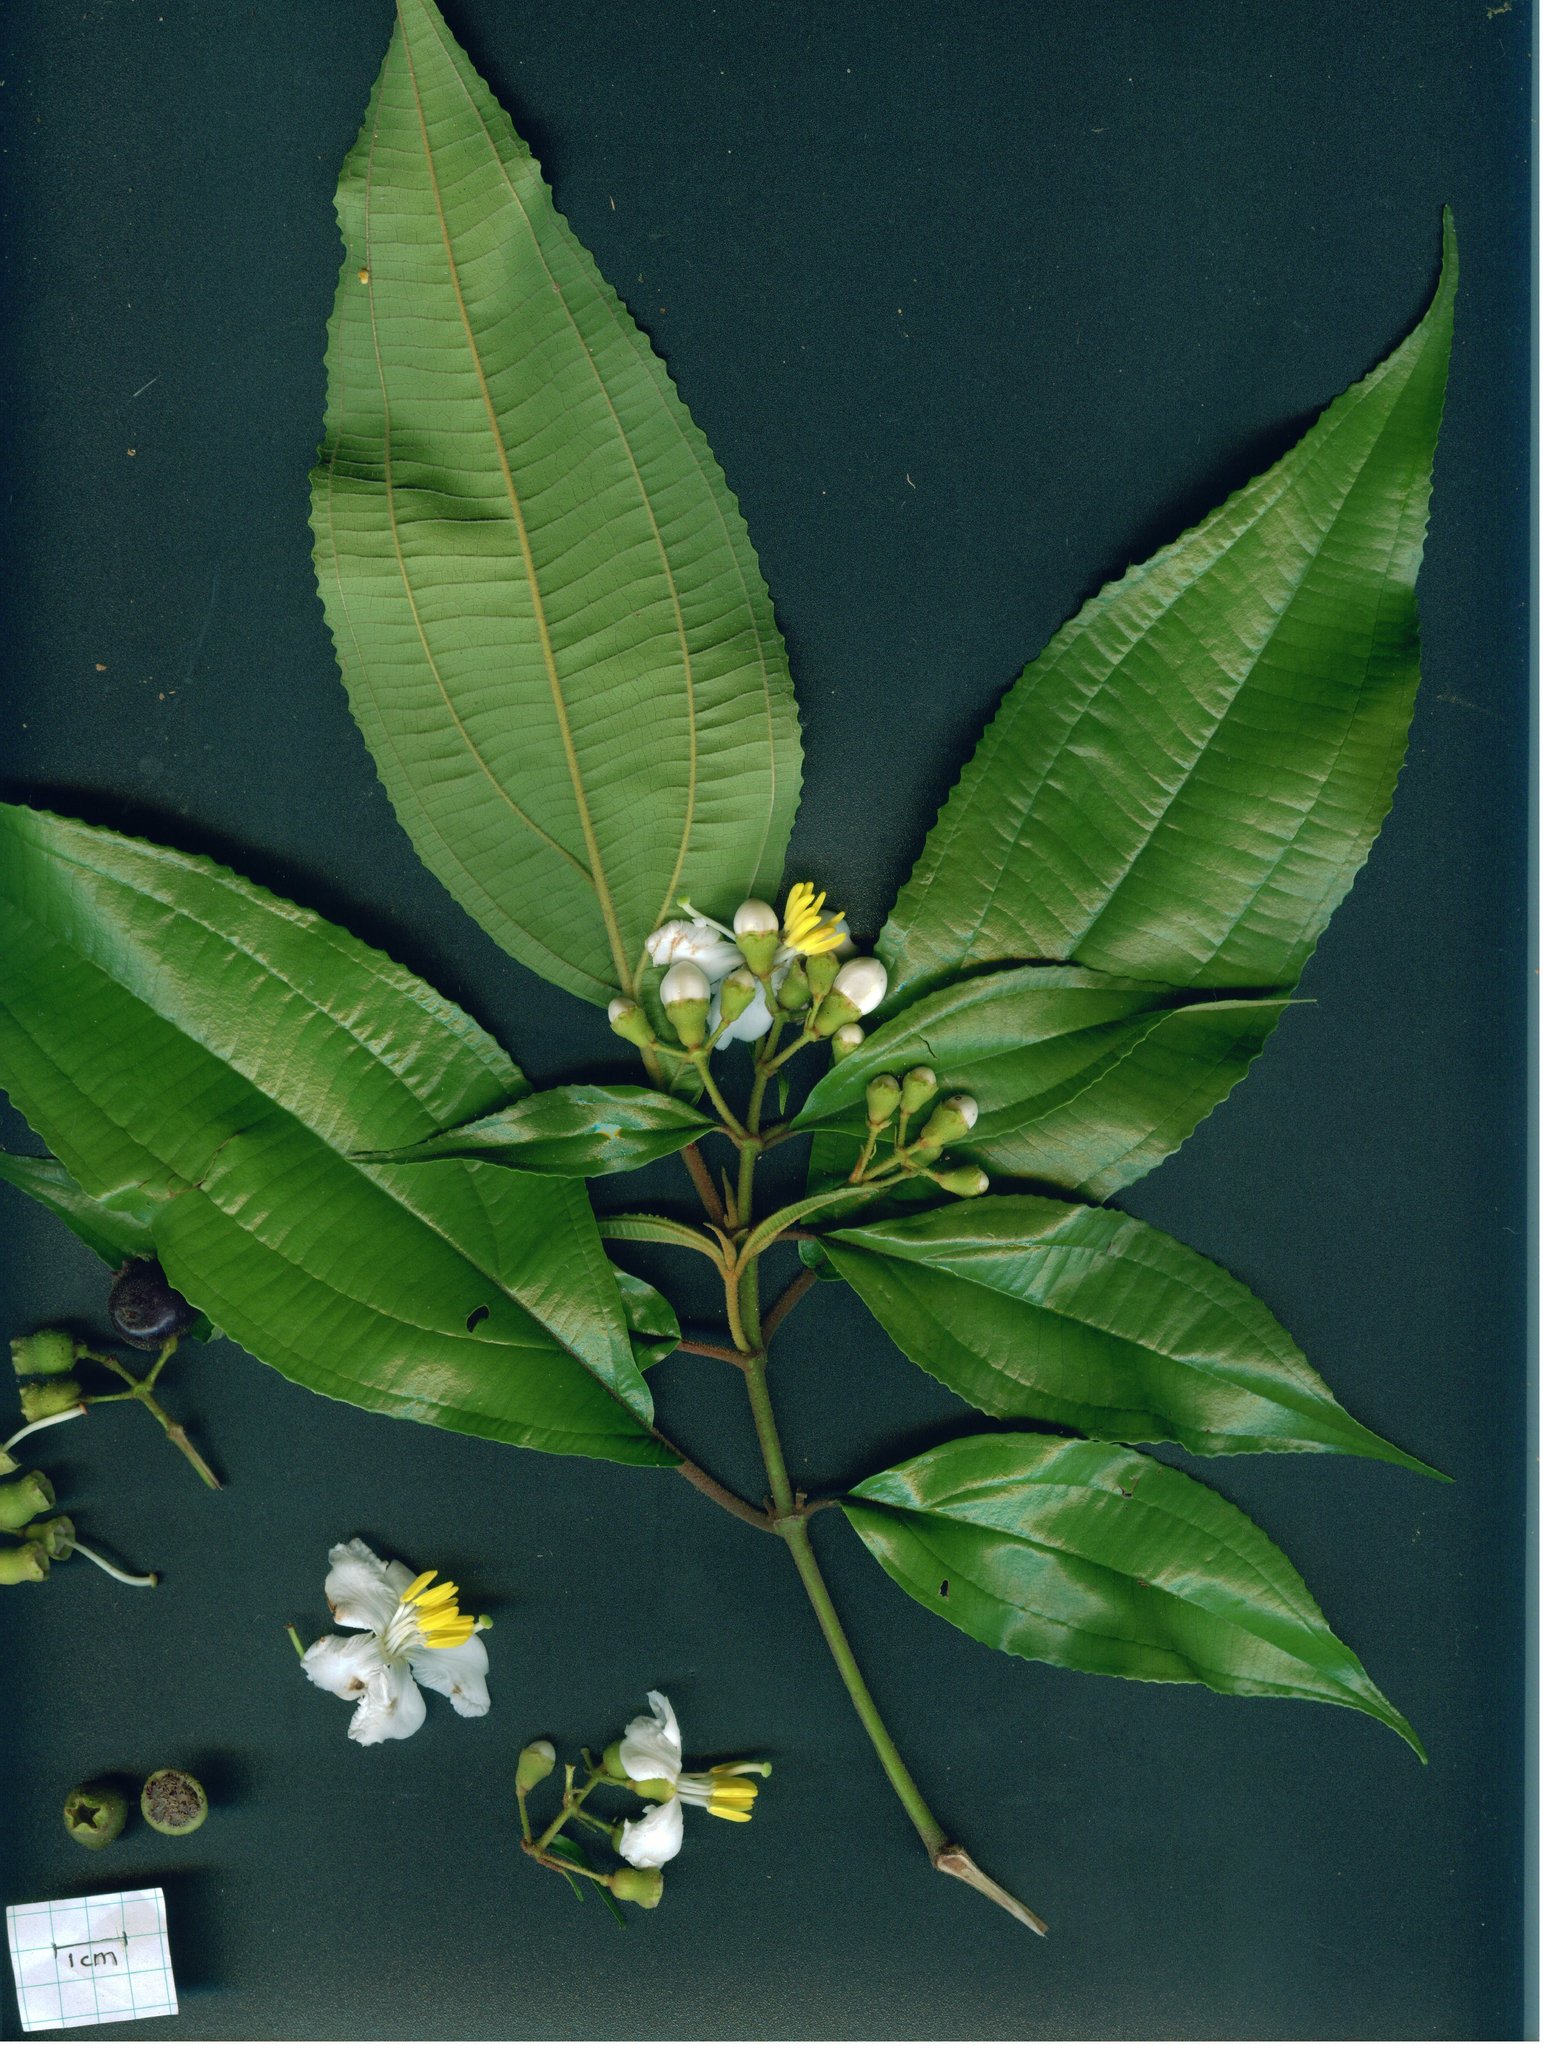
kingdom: Plantae
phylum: Tracheophyta
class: Magnoliopsida
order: Myrtales
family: Melastomataceae
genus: Miconia
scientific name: Miconia schlimii
